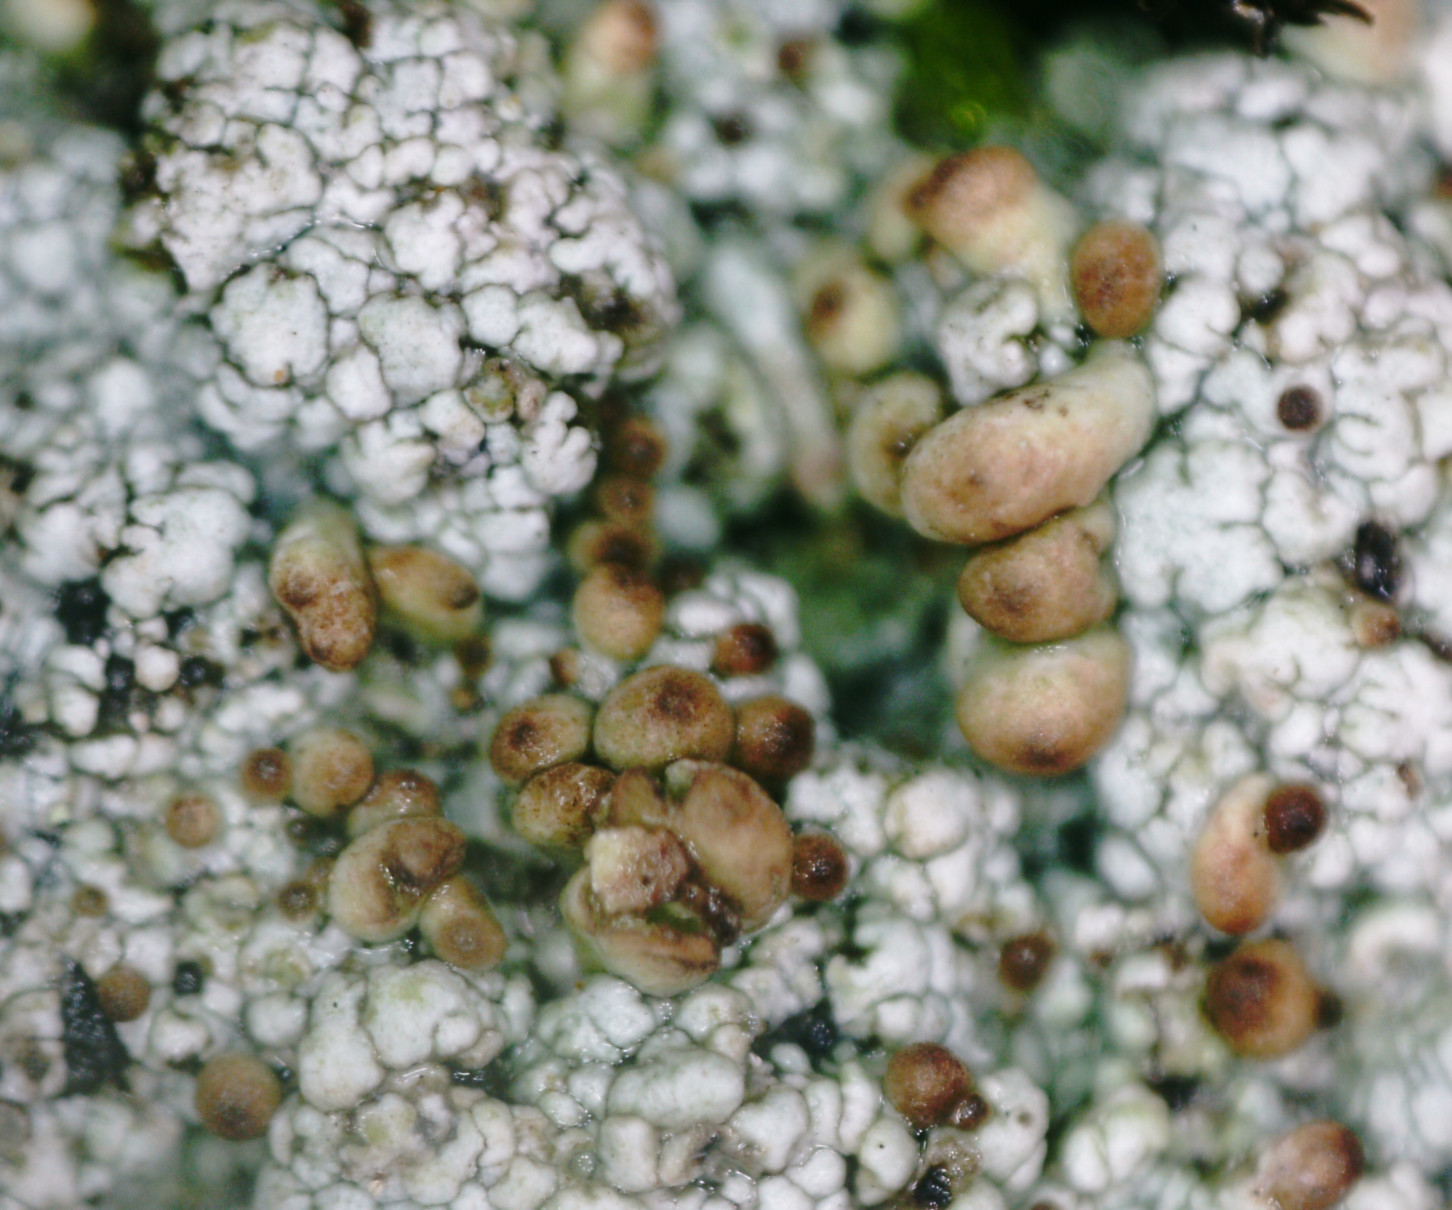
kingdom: Fungi
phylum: Ascomycota
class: Lecanoromycetes
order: Lecanorales
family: Cladoniaceae
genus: Pycnothelia
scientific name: Pycnothelia papillaria
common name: Nipple lichen
